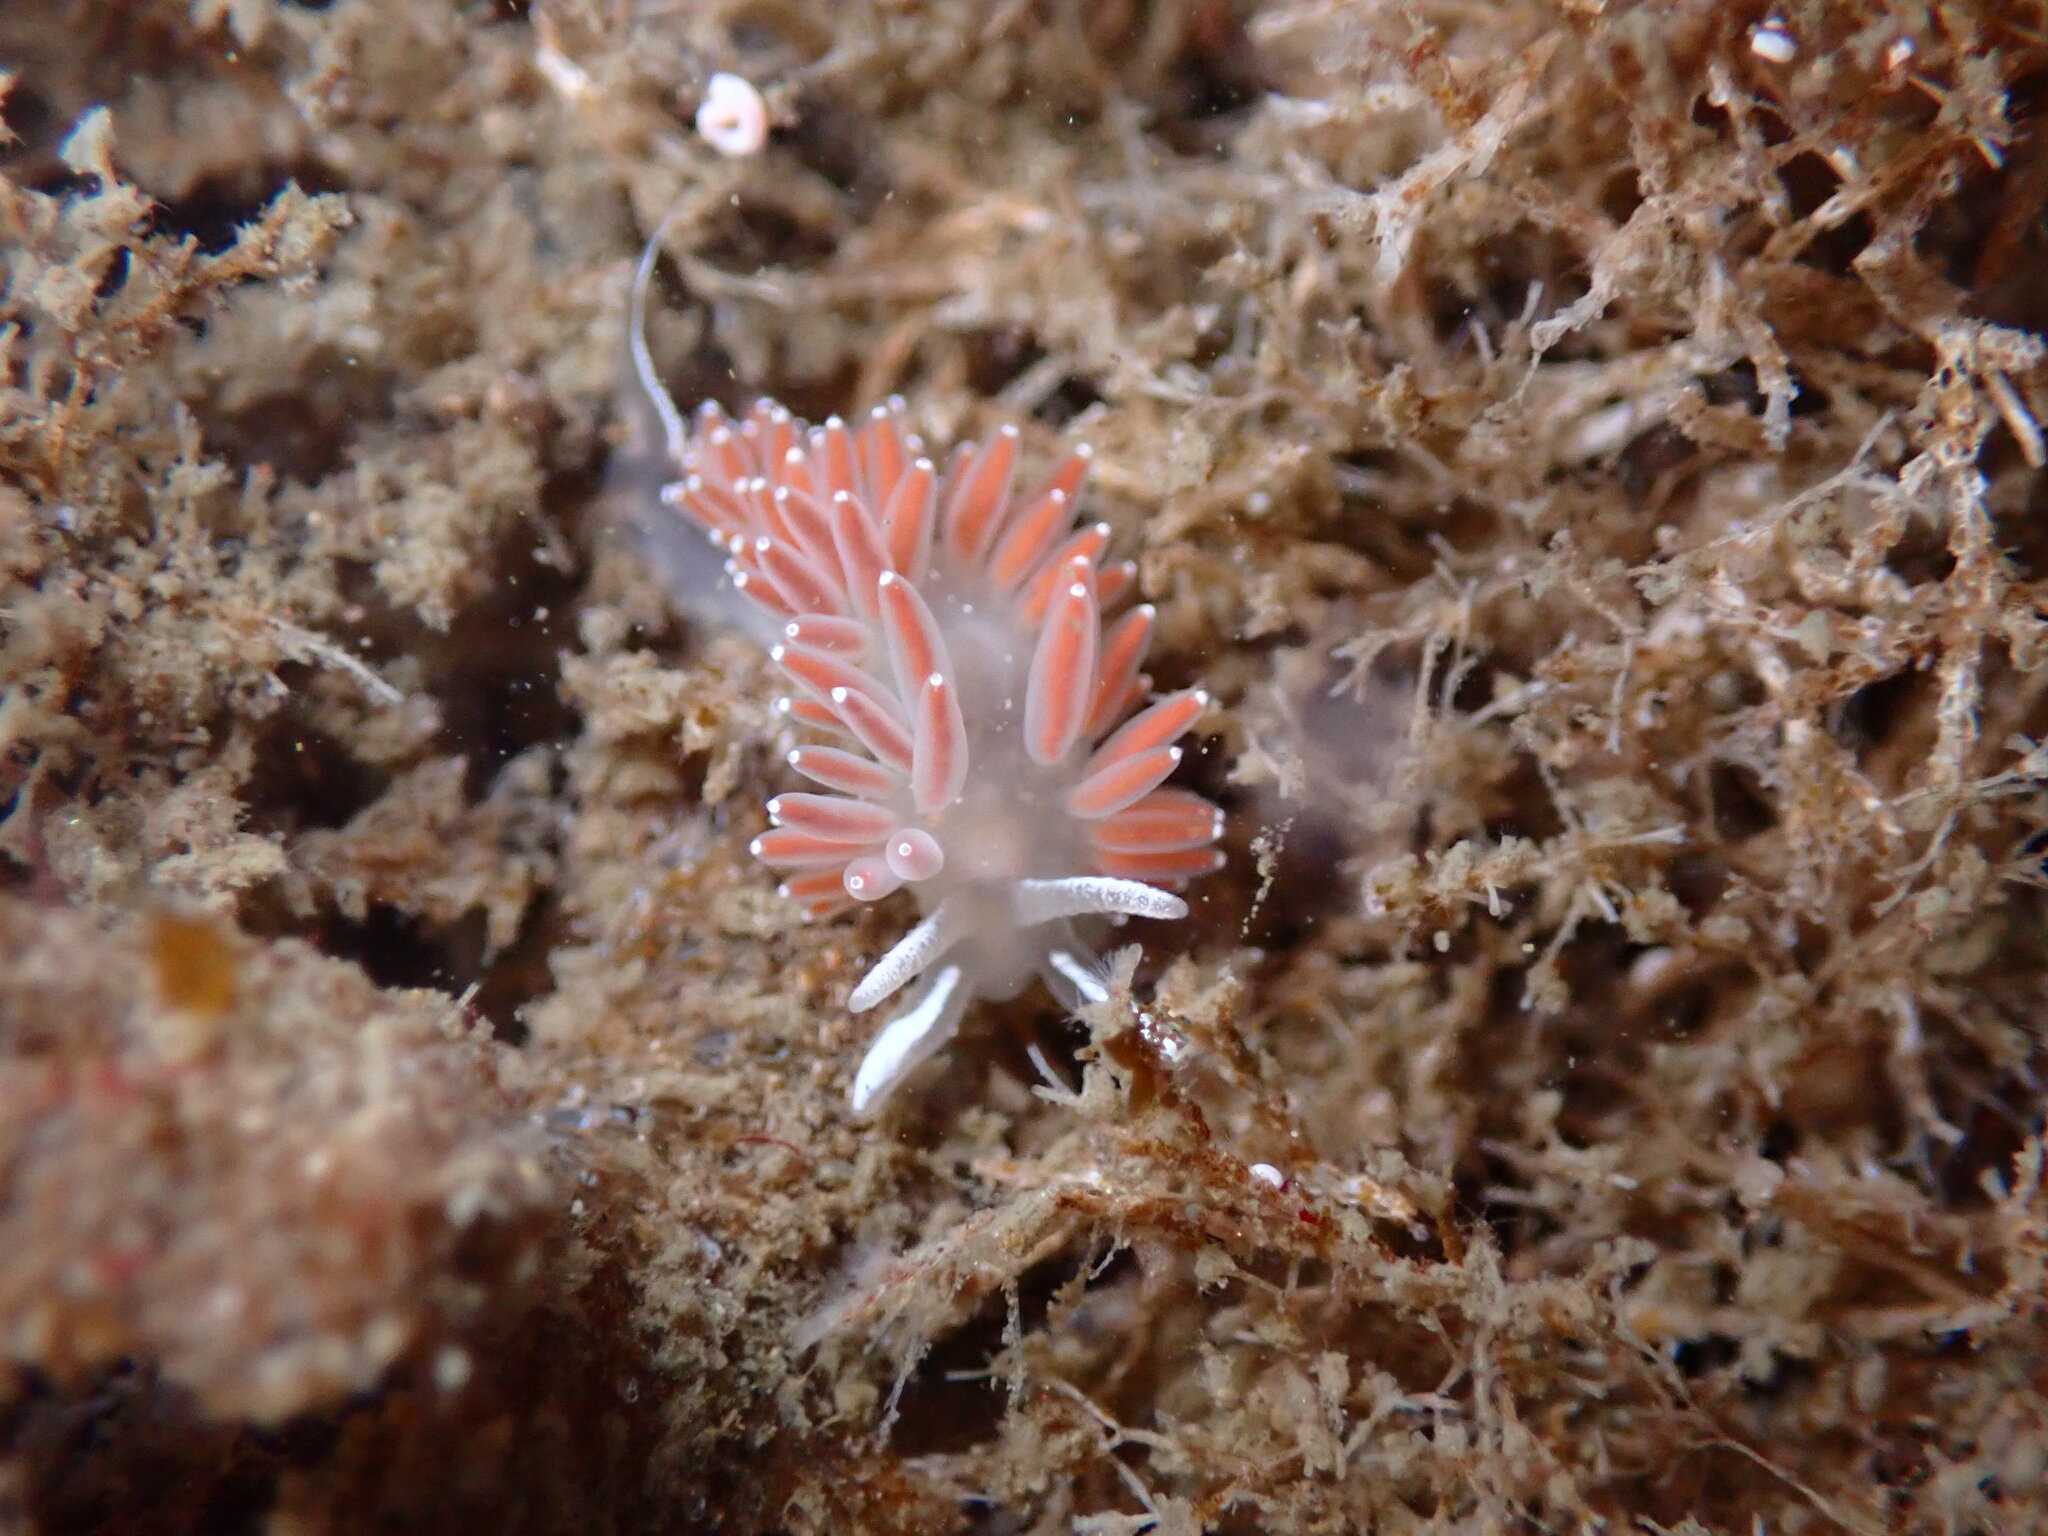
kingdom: Animalia
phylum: Mollusca
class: Gastropoda
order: Nudibranchia
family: Coryphellidae
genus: Coryphella
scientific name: Coryphella verrucosa
